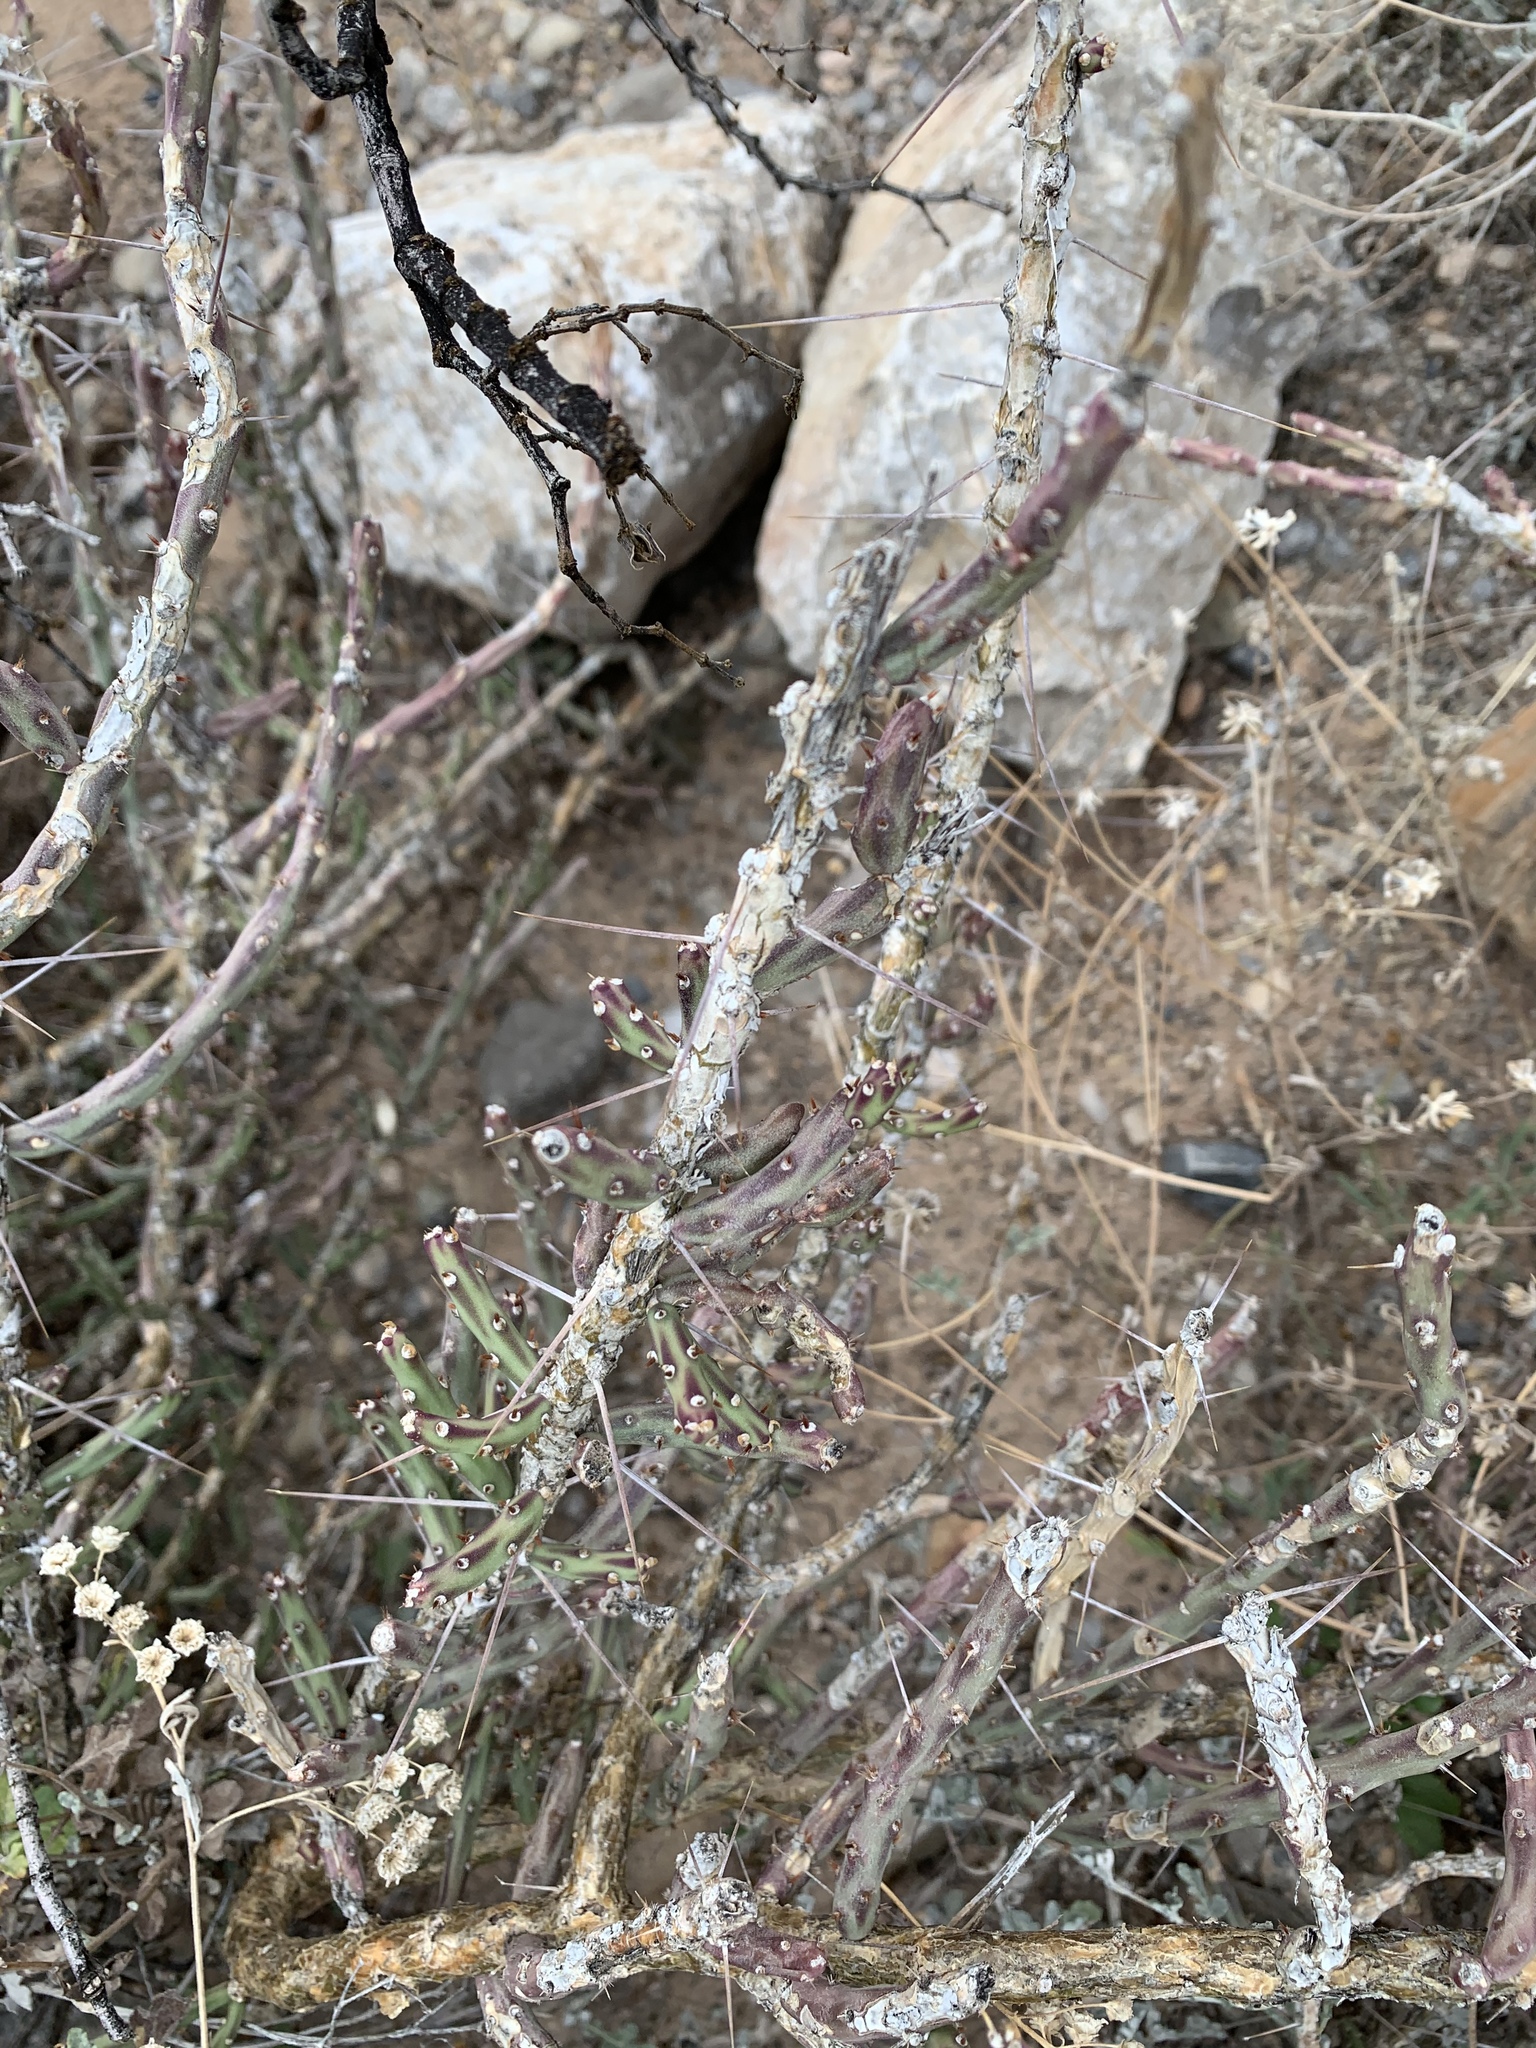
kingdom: Plantae
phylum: Tracheophyta
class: Magnoliopsida
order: Caryophyllales
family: Cactaceae
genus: Cylindropuntia
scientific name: Cylindropuntia leptocaulis
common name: Christmas cactus
